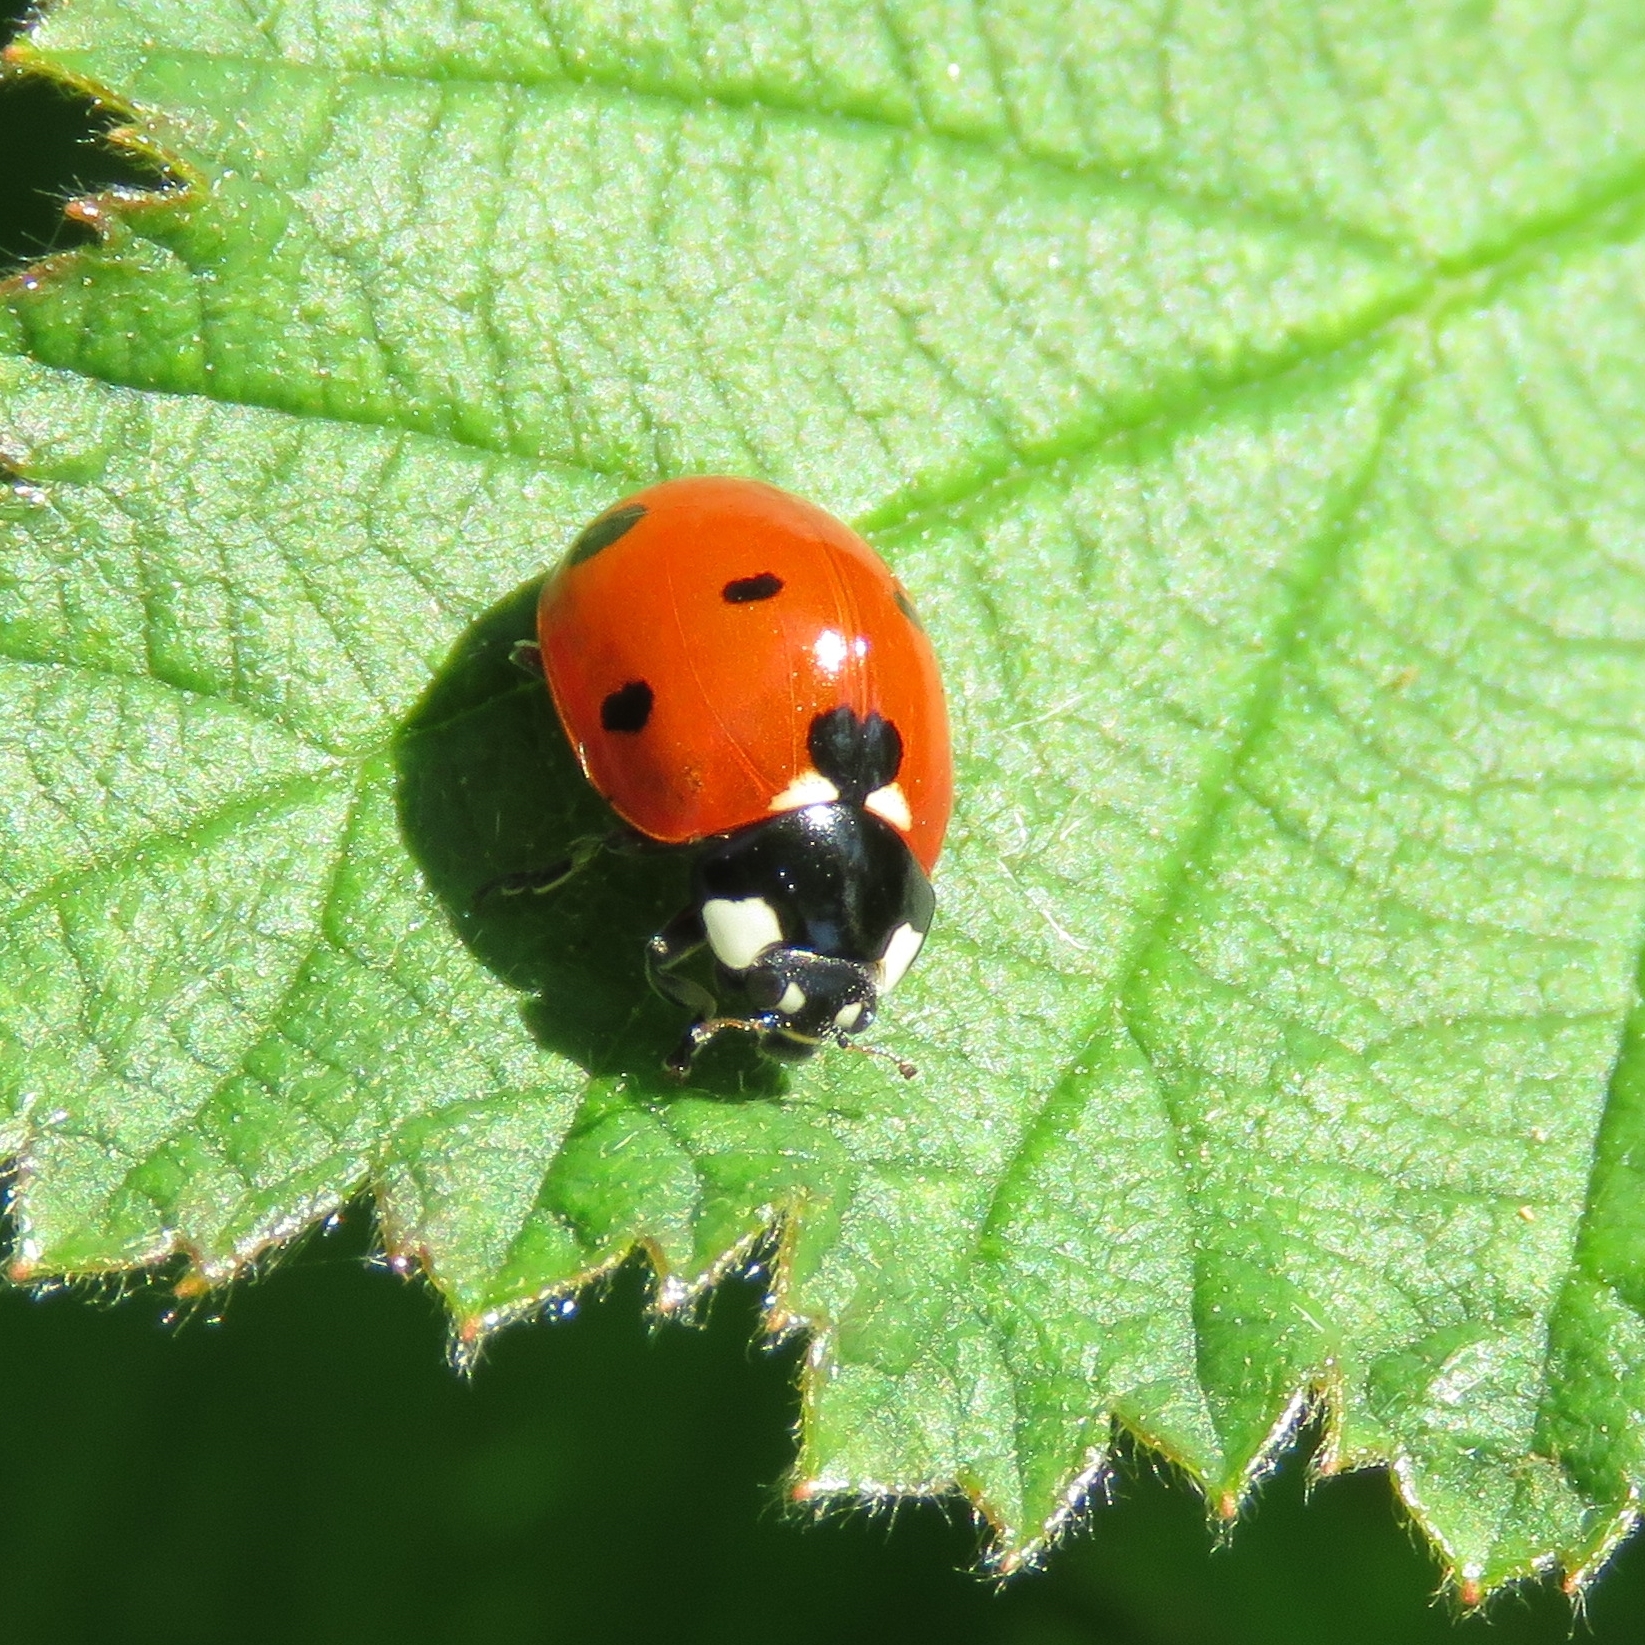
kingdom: Animalia
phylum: Arthropoda
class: Insecta
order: Coleoptera
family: Coccinellidae
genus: Coccinella
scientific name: Coccinella septempunctata
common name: Sevenspotted lady beetle
